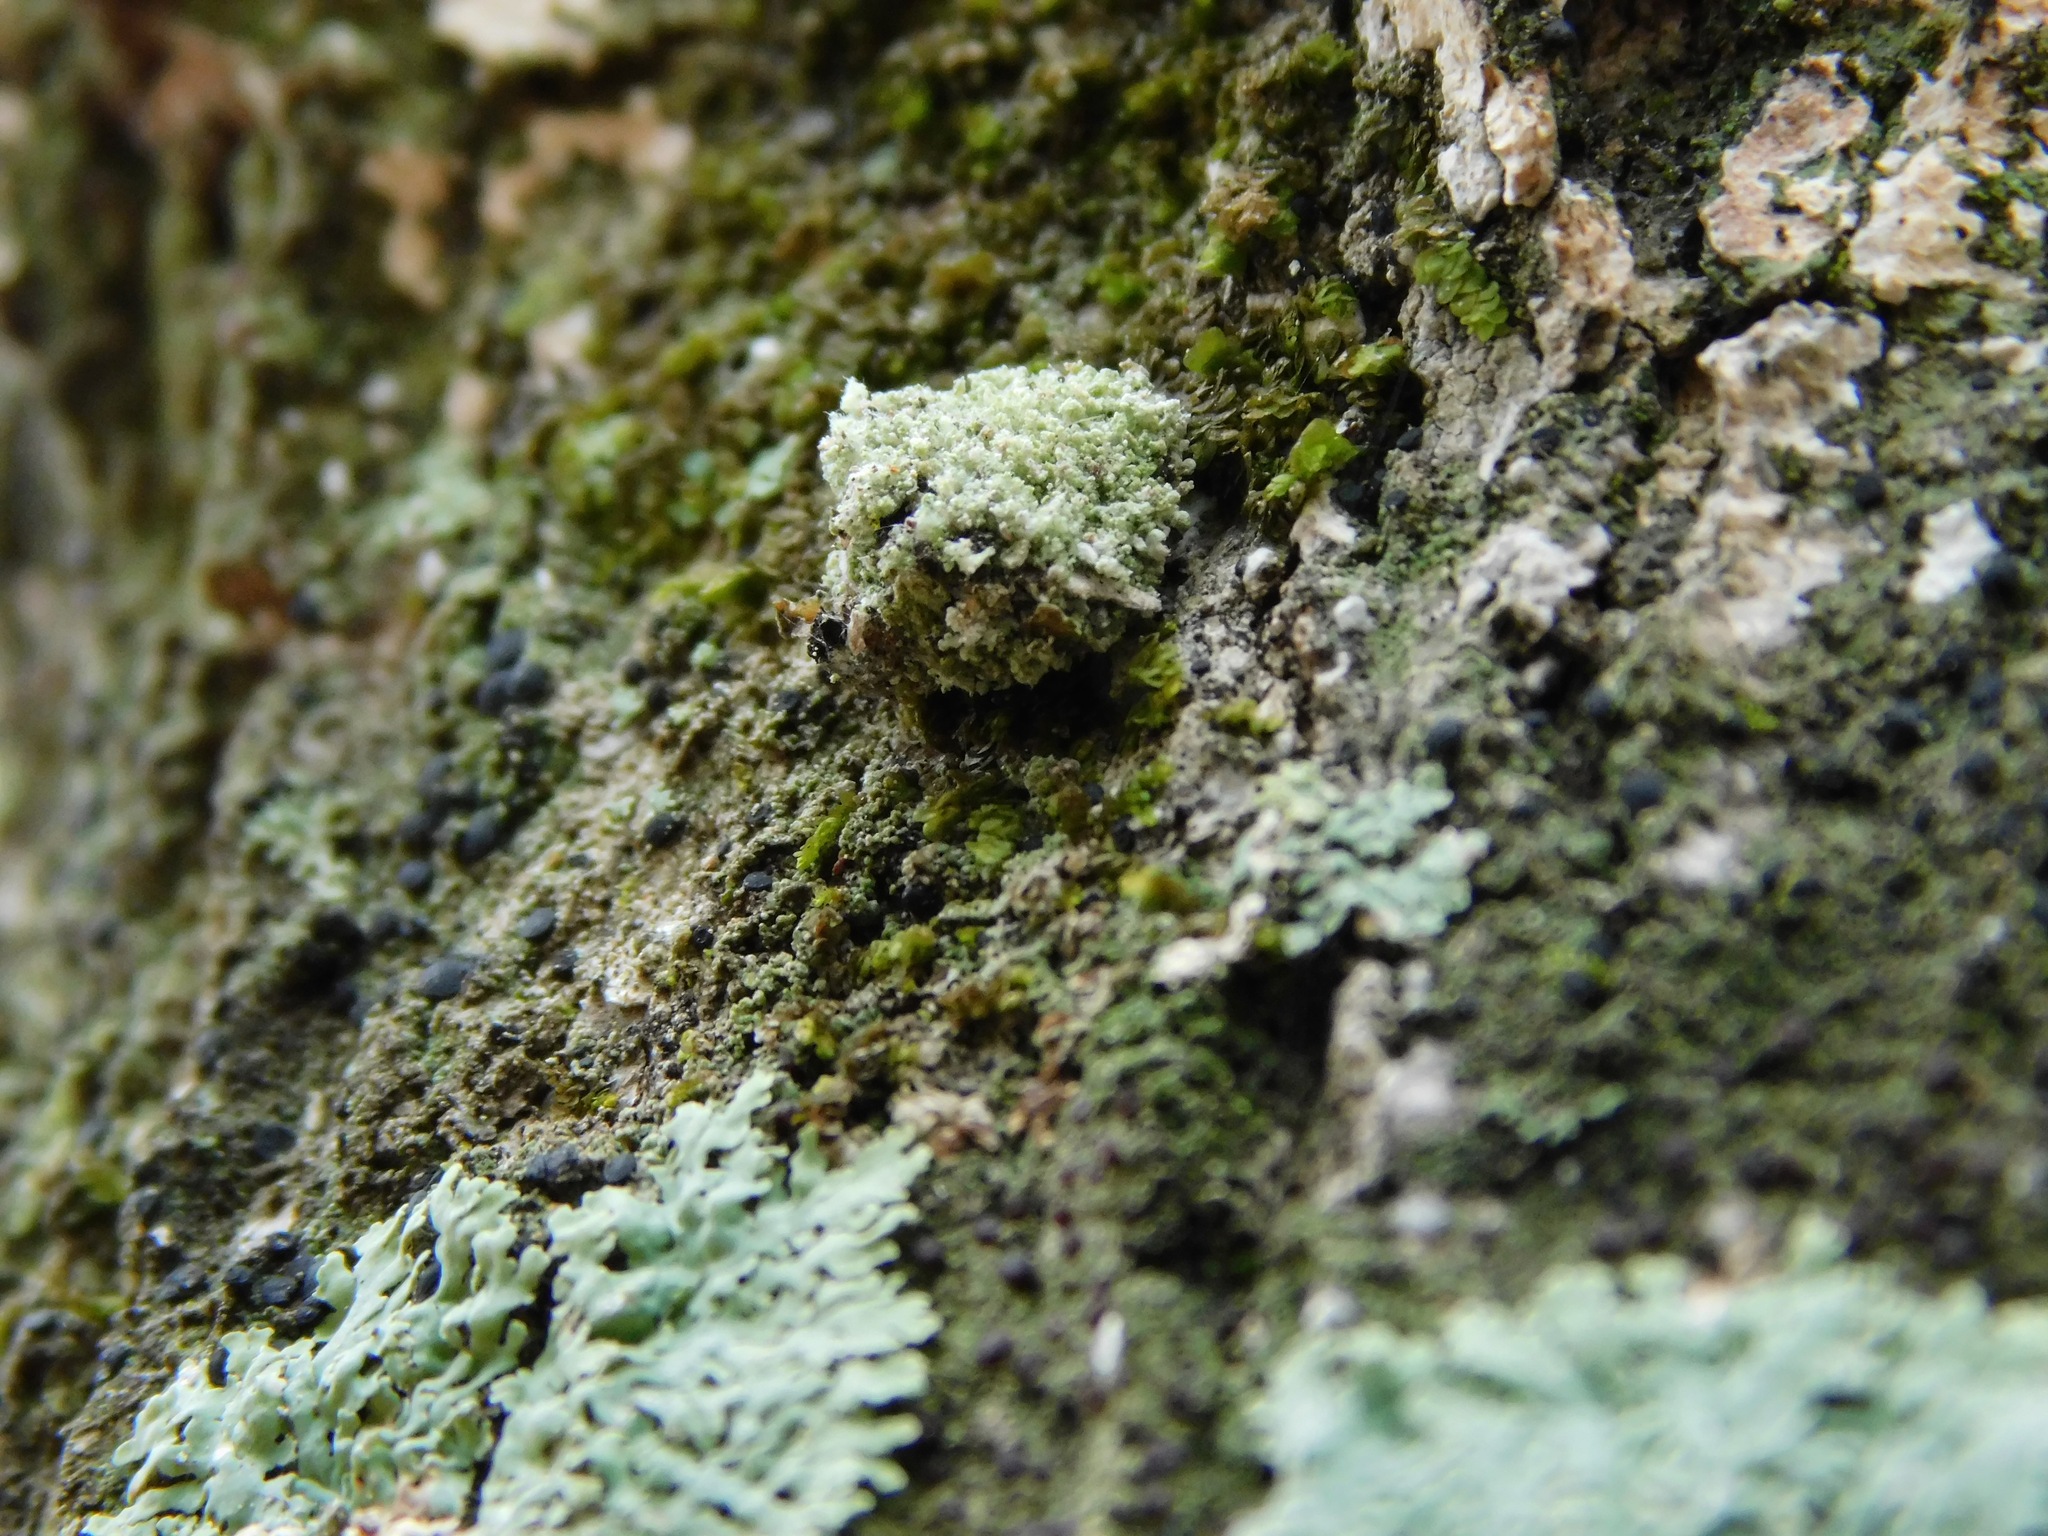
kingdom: Animalia
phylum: Arthropoda
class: Insecta
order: Neuroptera
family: Chrysopidae
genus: Leucochrysa
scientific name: Leucochrysa pavida
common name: Lichen-carrying green lacewing
